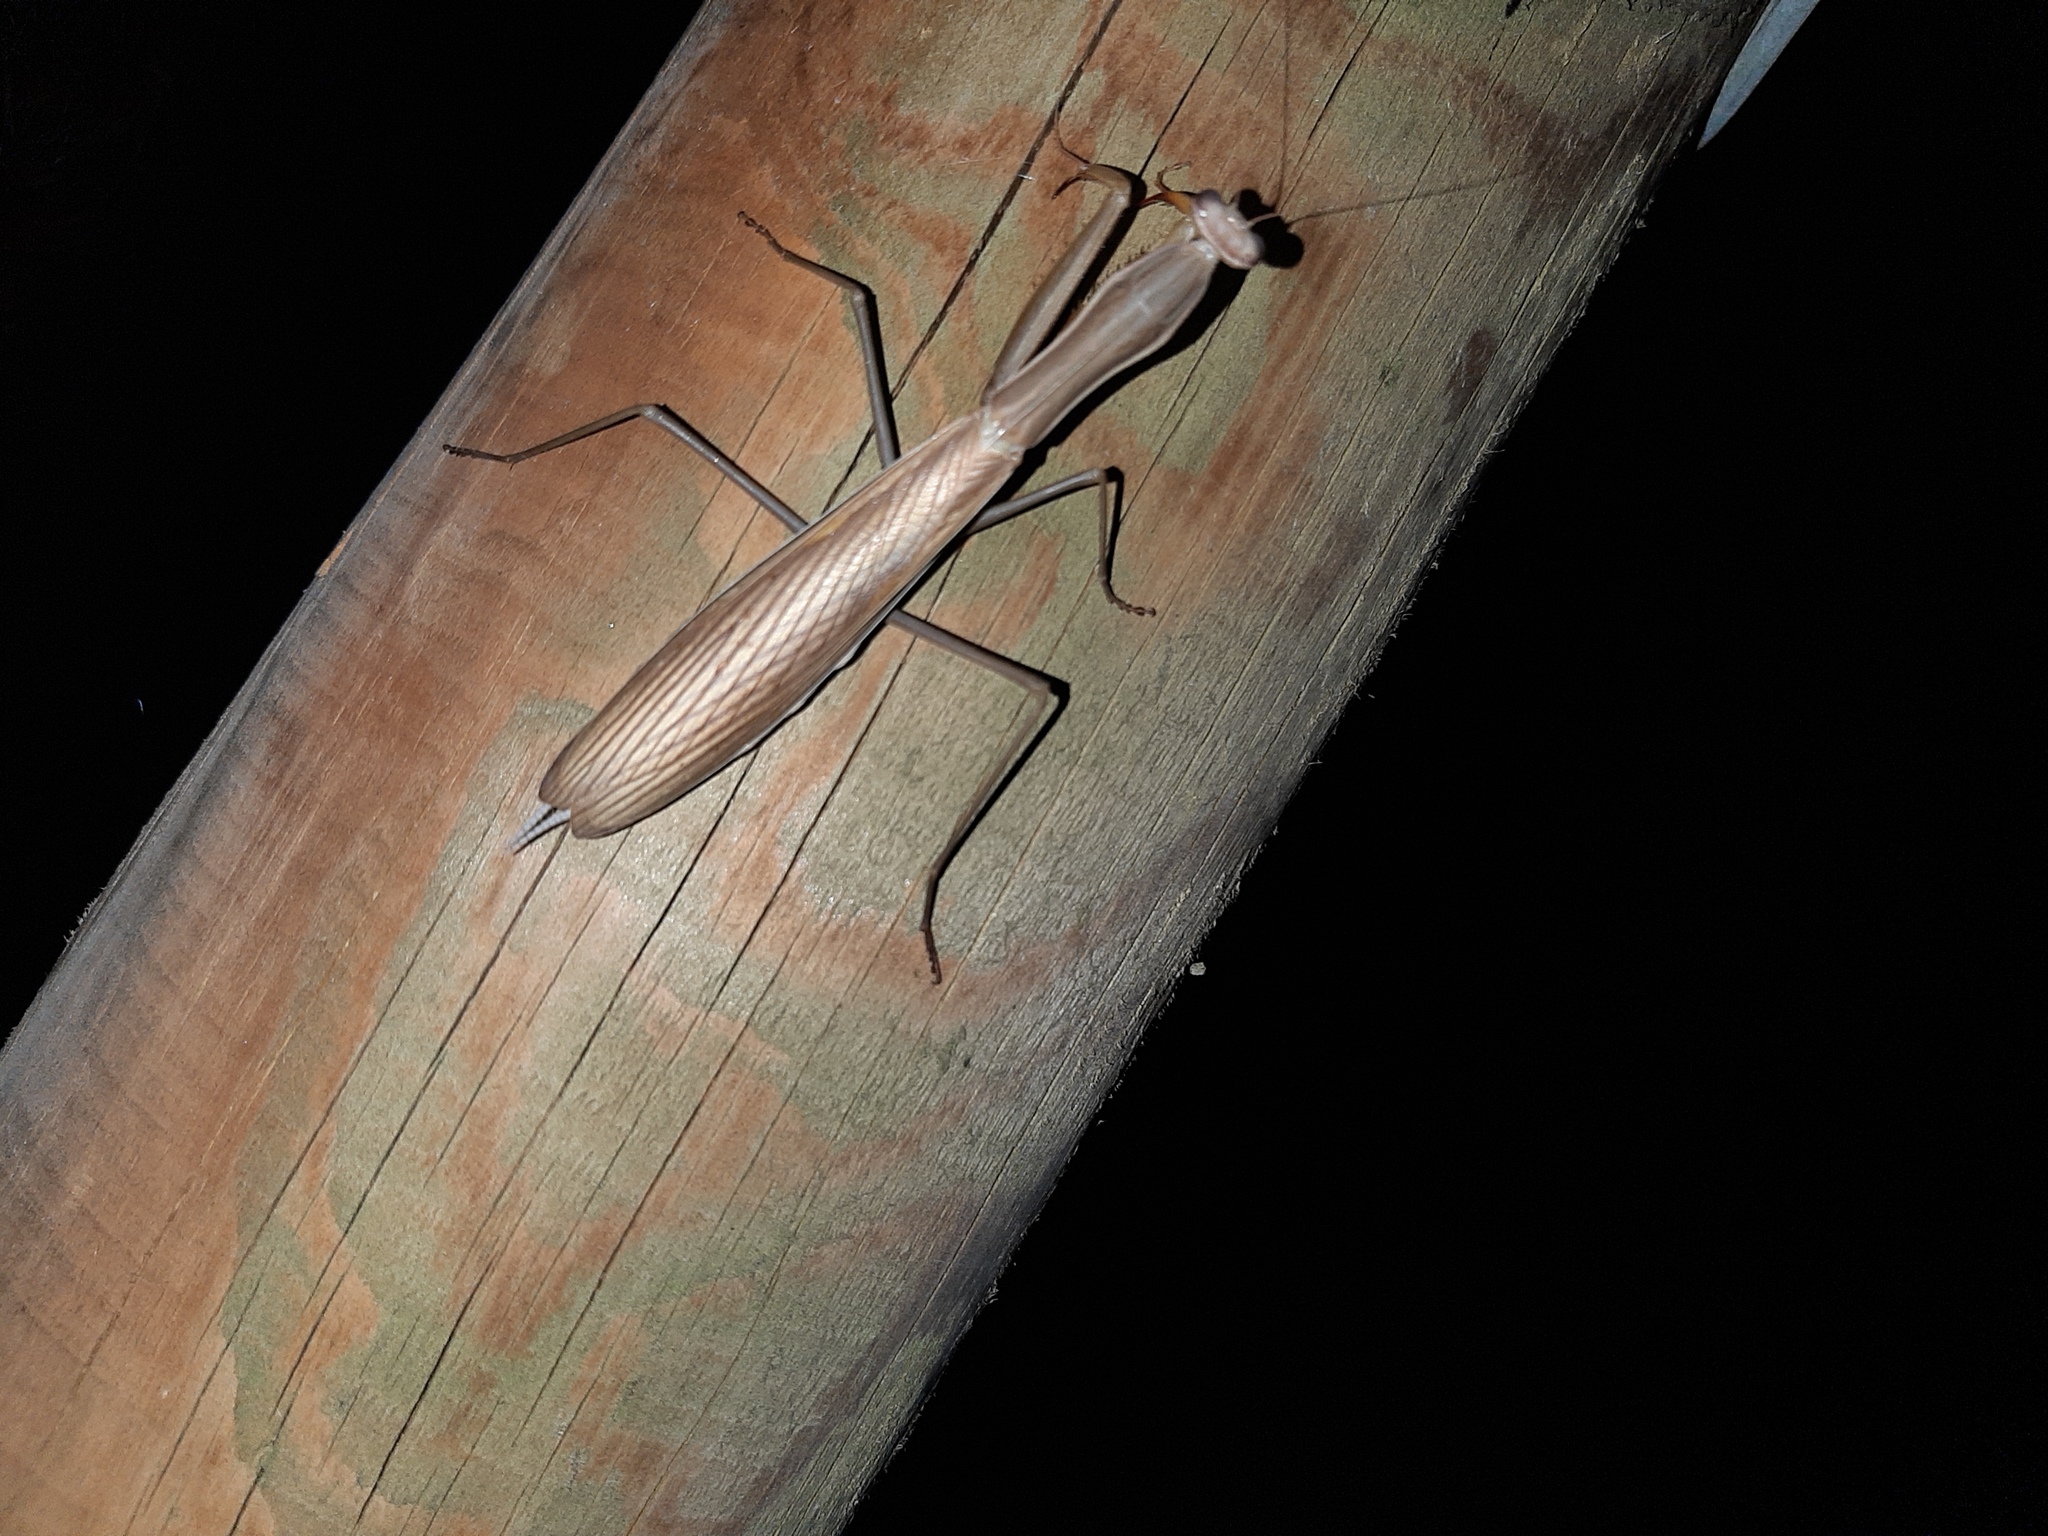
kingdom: Animalia
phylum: Arthropoda
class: Insecta
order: Mantodea
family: Mantidae
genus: Mantis
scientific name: Mantis religiosa
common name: Praying mantis
